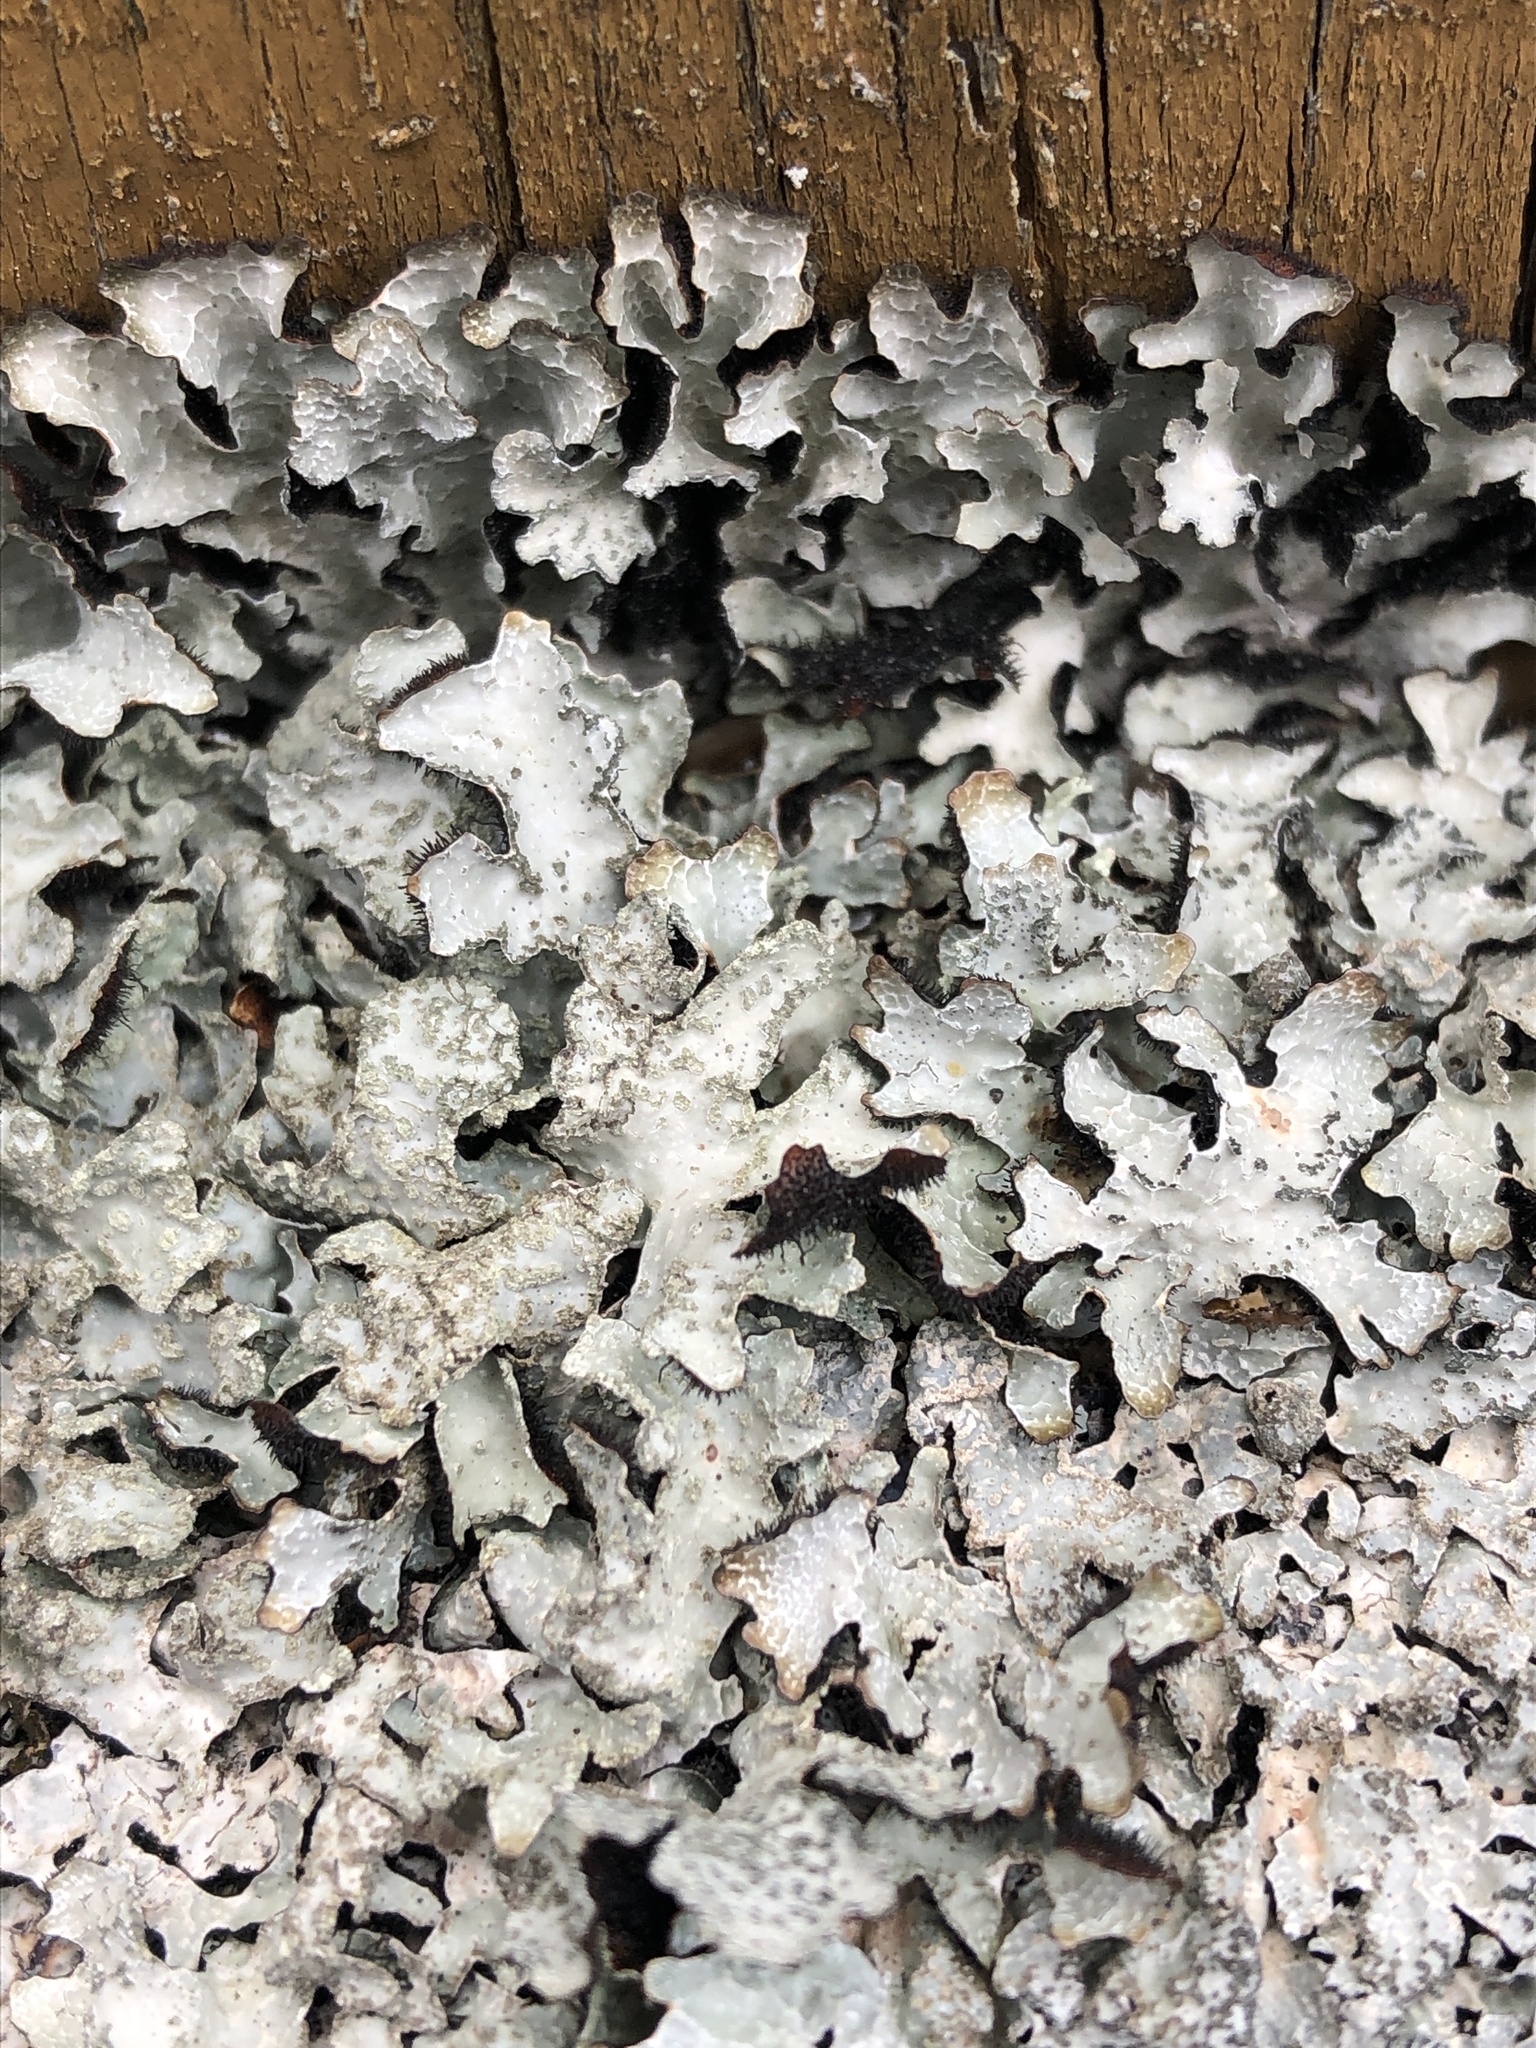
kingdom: Fungi
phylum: Ascomycota
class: Lecanoromycetes
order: Lecanorales
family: Parmeliaceae
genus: Parmelia
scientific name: Parmelia sulcata
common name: Netted shield lichen
